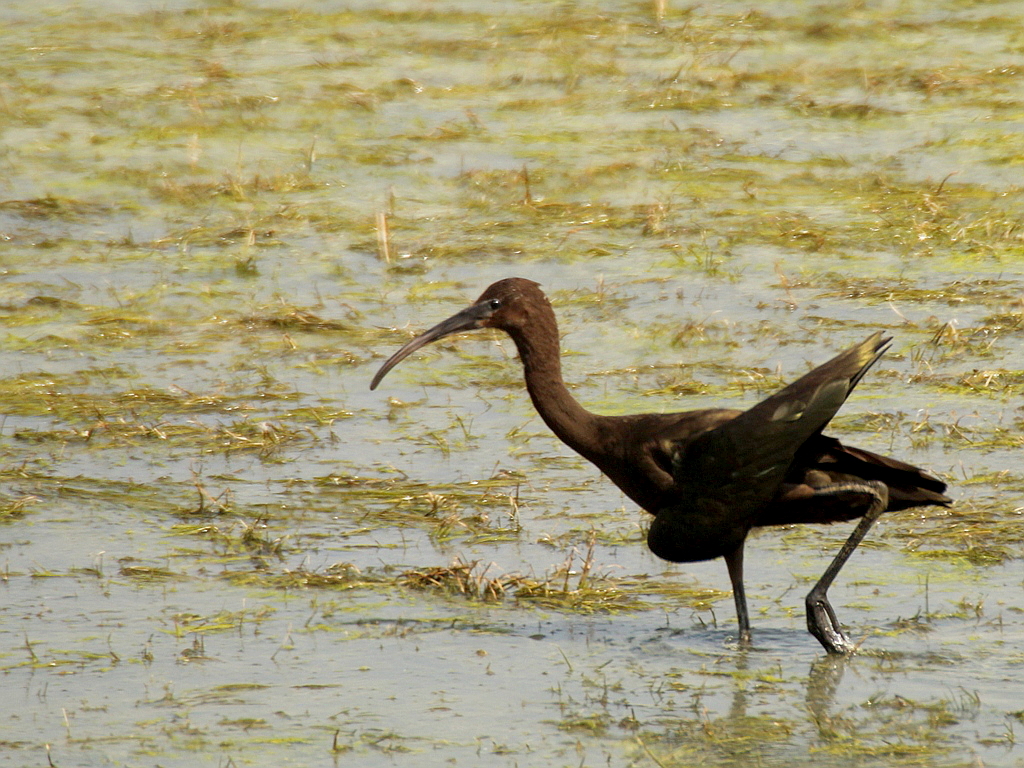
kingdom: Animalia
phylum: Chordata
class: Aves
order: Pelecaniformes
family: Threskiornithidae
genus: Plegadis
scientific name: Plegadis falcinellus
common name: Glossy ibis
